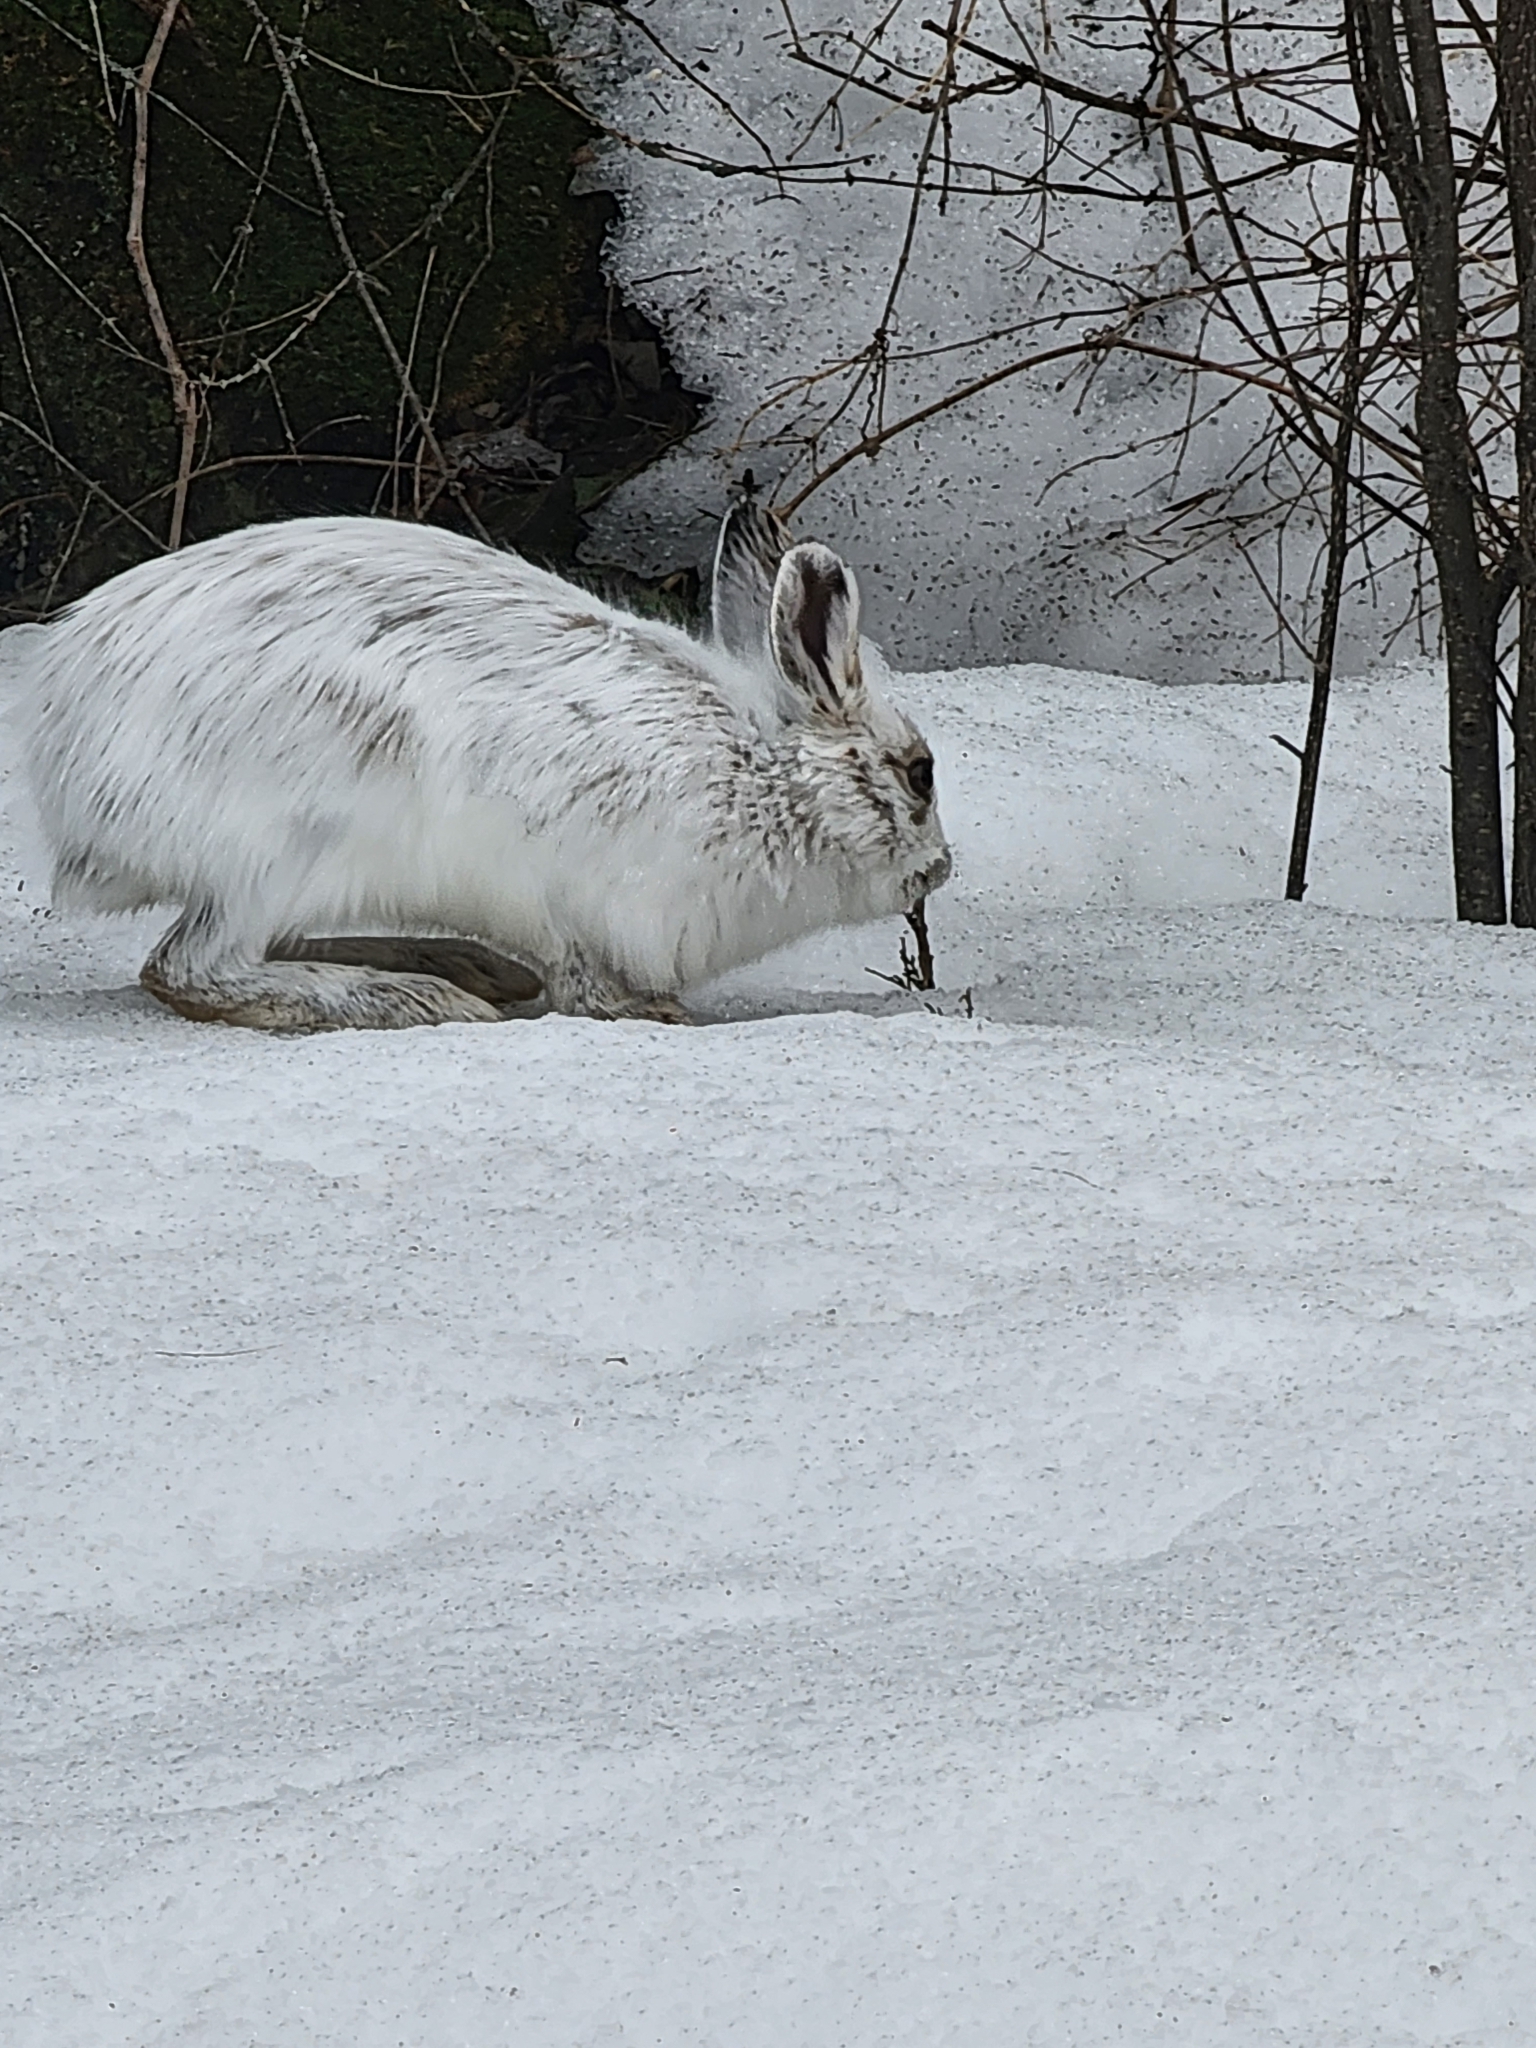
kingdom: Animalia
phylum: Chordata
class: Mammalia
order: Lagomorpha
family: Leporidae
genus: Lepus
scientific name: Lepus americanus
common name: Snowshoe hare
